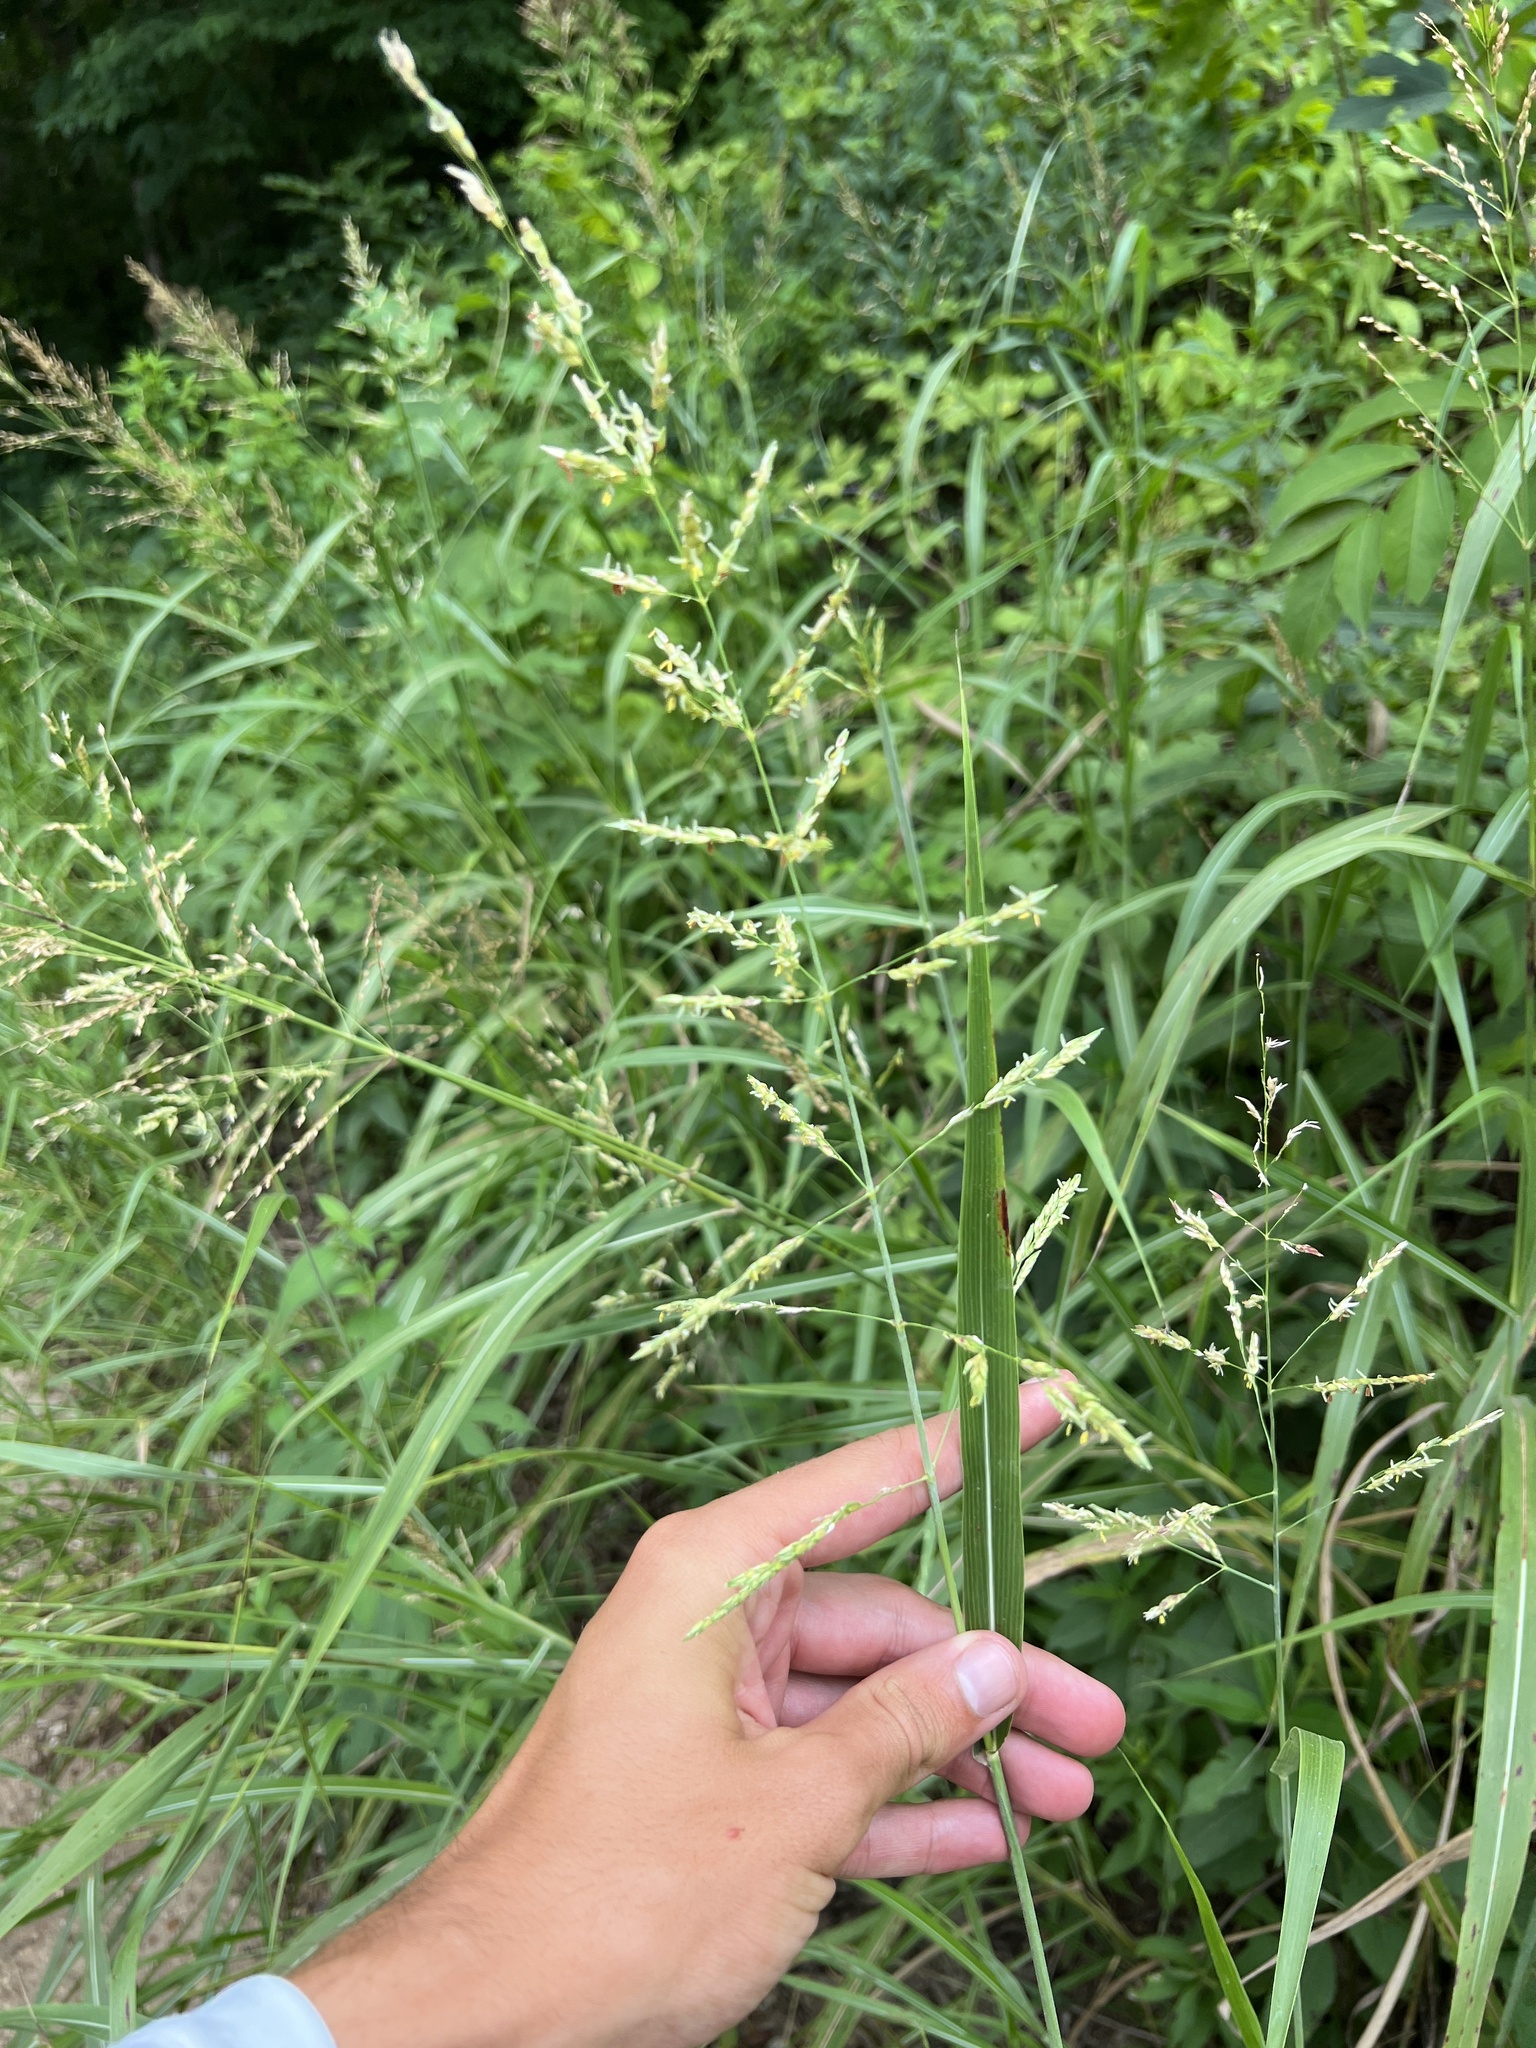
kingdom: Plantae
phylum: Tracheophyta
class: Liliopsida
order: Poales
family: Poaceae
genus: Sorghum
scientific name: Sorghum halepense
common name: Johnson-grass
